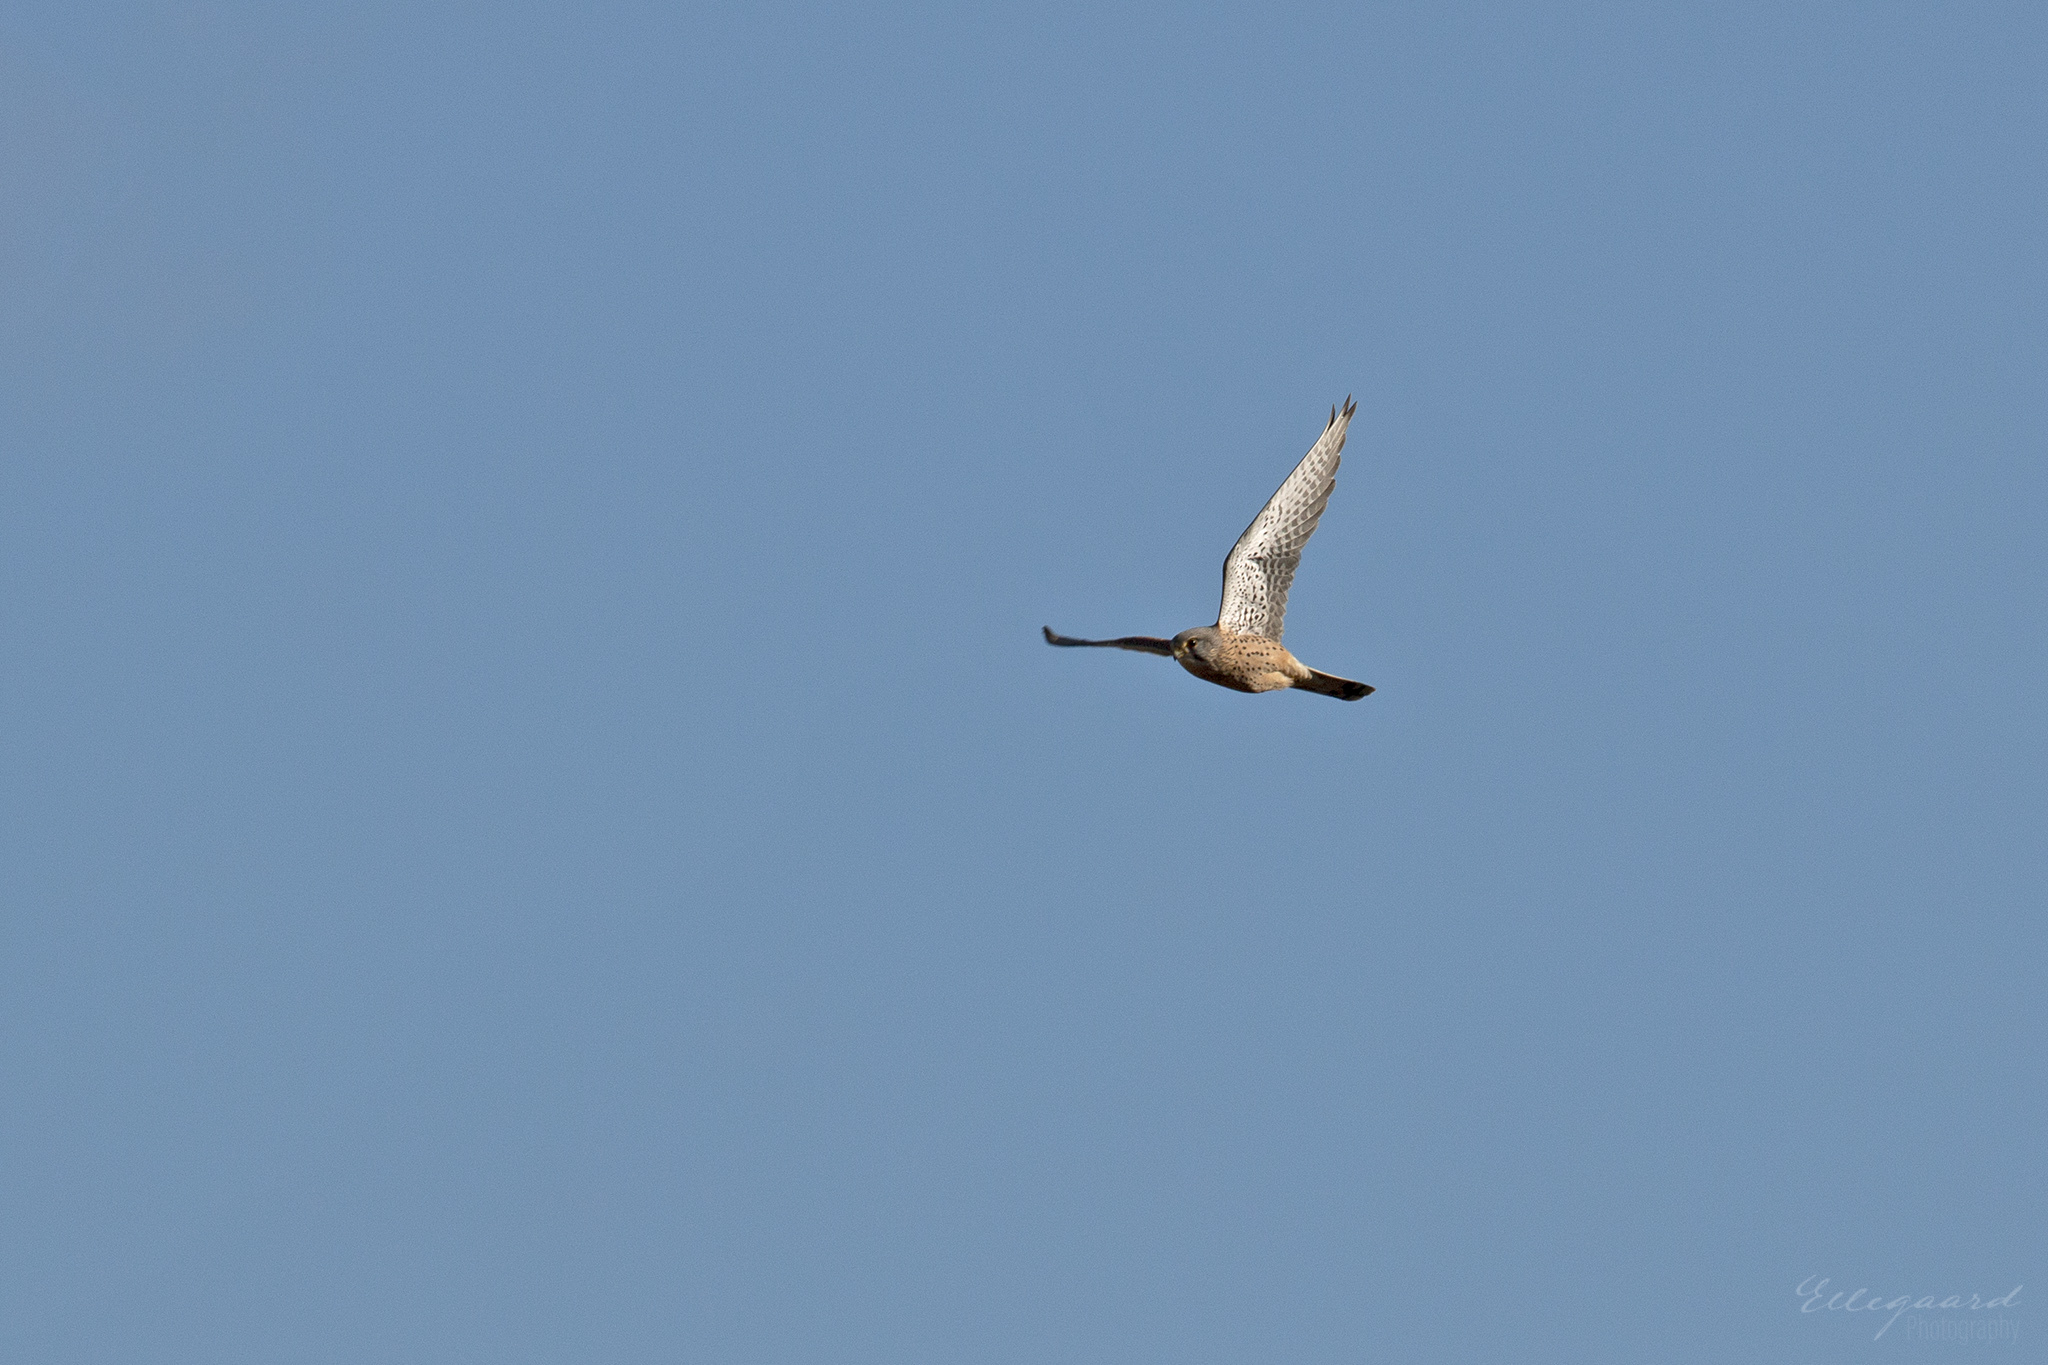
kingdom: Animalia
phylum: Chordata
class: Aves
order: Falconiformes
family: Falconidae
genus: Falco
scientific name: Falco tinnunculus
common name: Common kestrel
